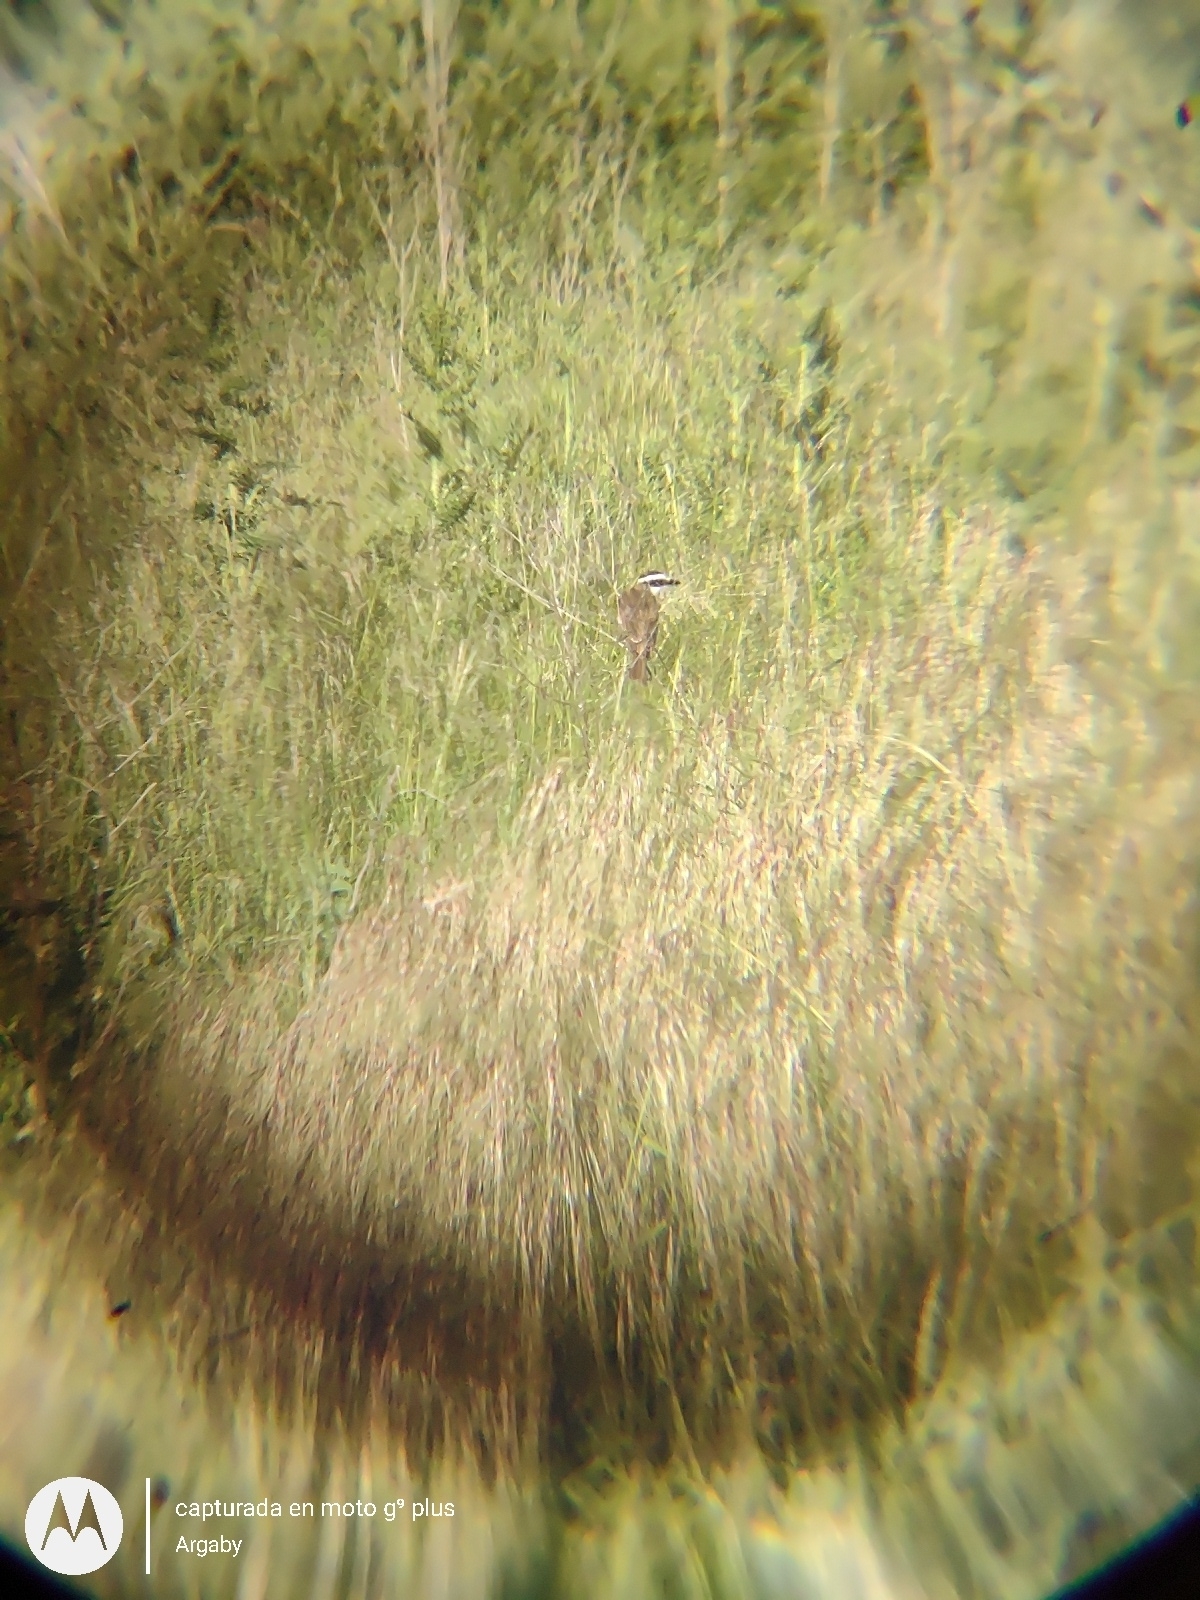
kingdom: Animalia
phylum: Chordata
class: Aves
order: Passeriformes
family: Tyrannidae
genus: Pitangus
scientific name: Pitangus sulphuratus
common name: Great kiskadee
